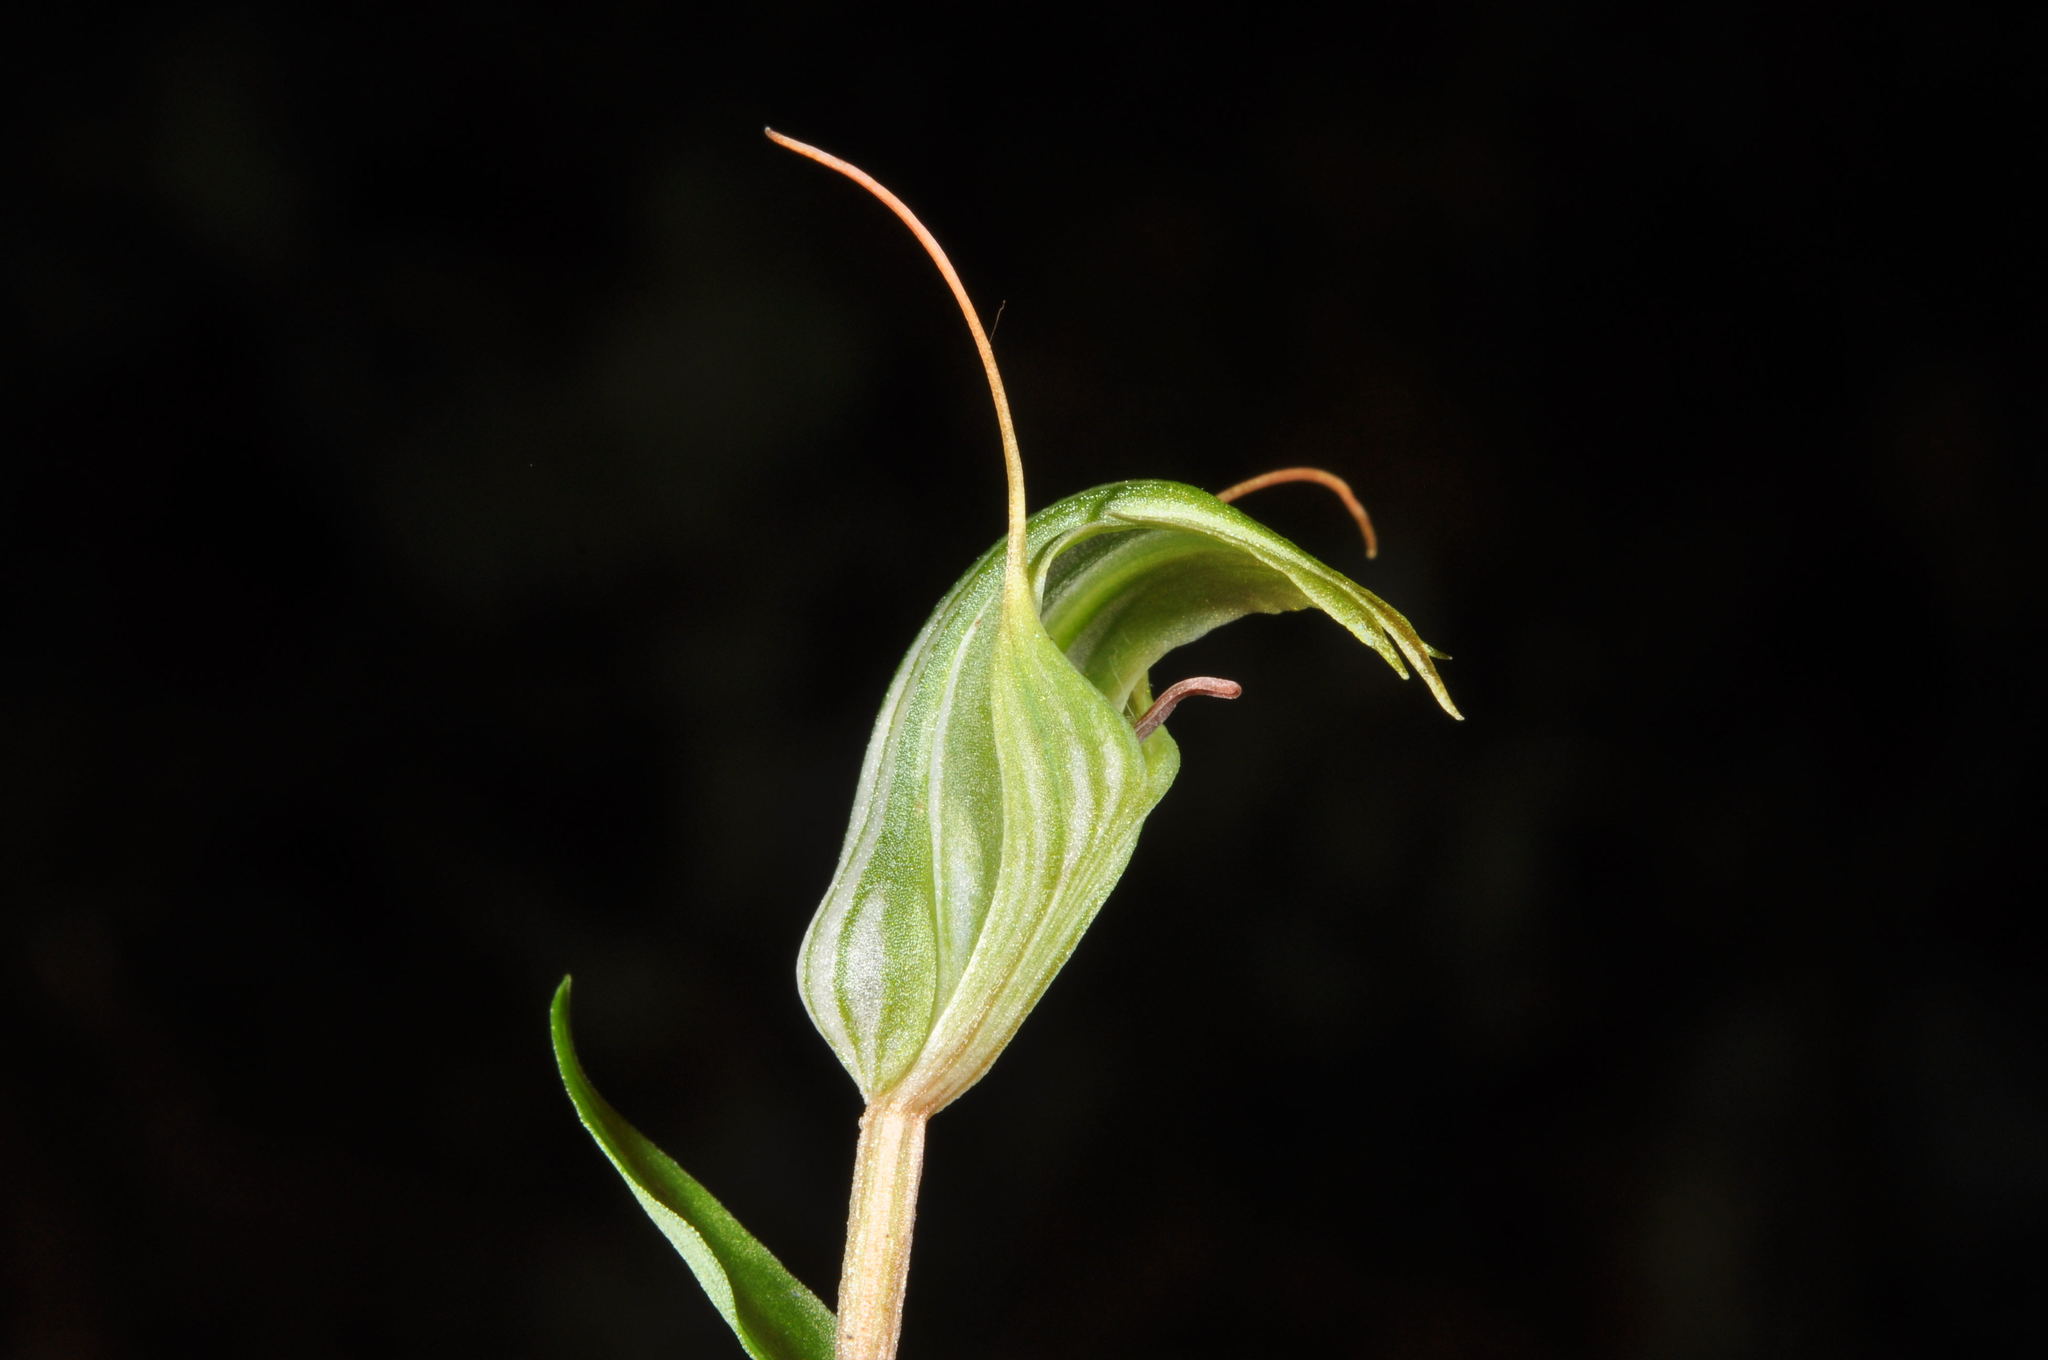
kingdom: Plantae
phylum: Tracheophyta
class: Liliopsida
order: Asparagales
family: Orchidaceae
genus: Pterostylis
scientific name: Pterostylis alobula
